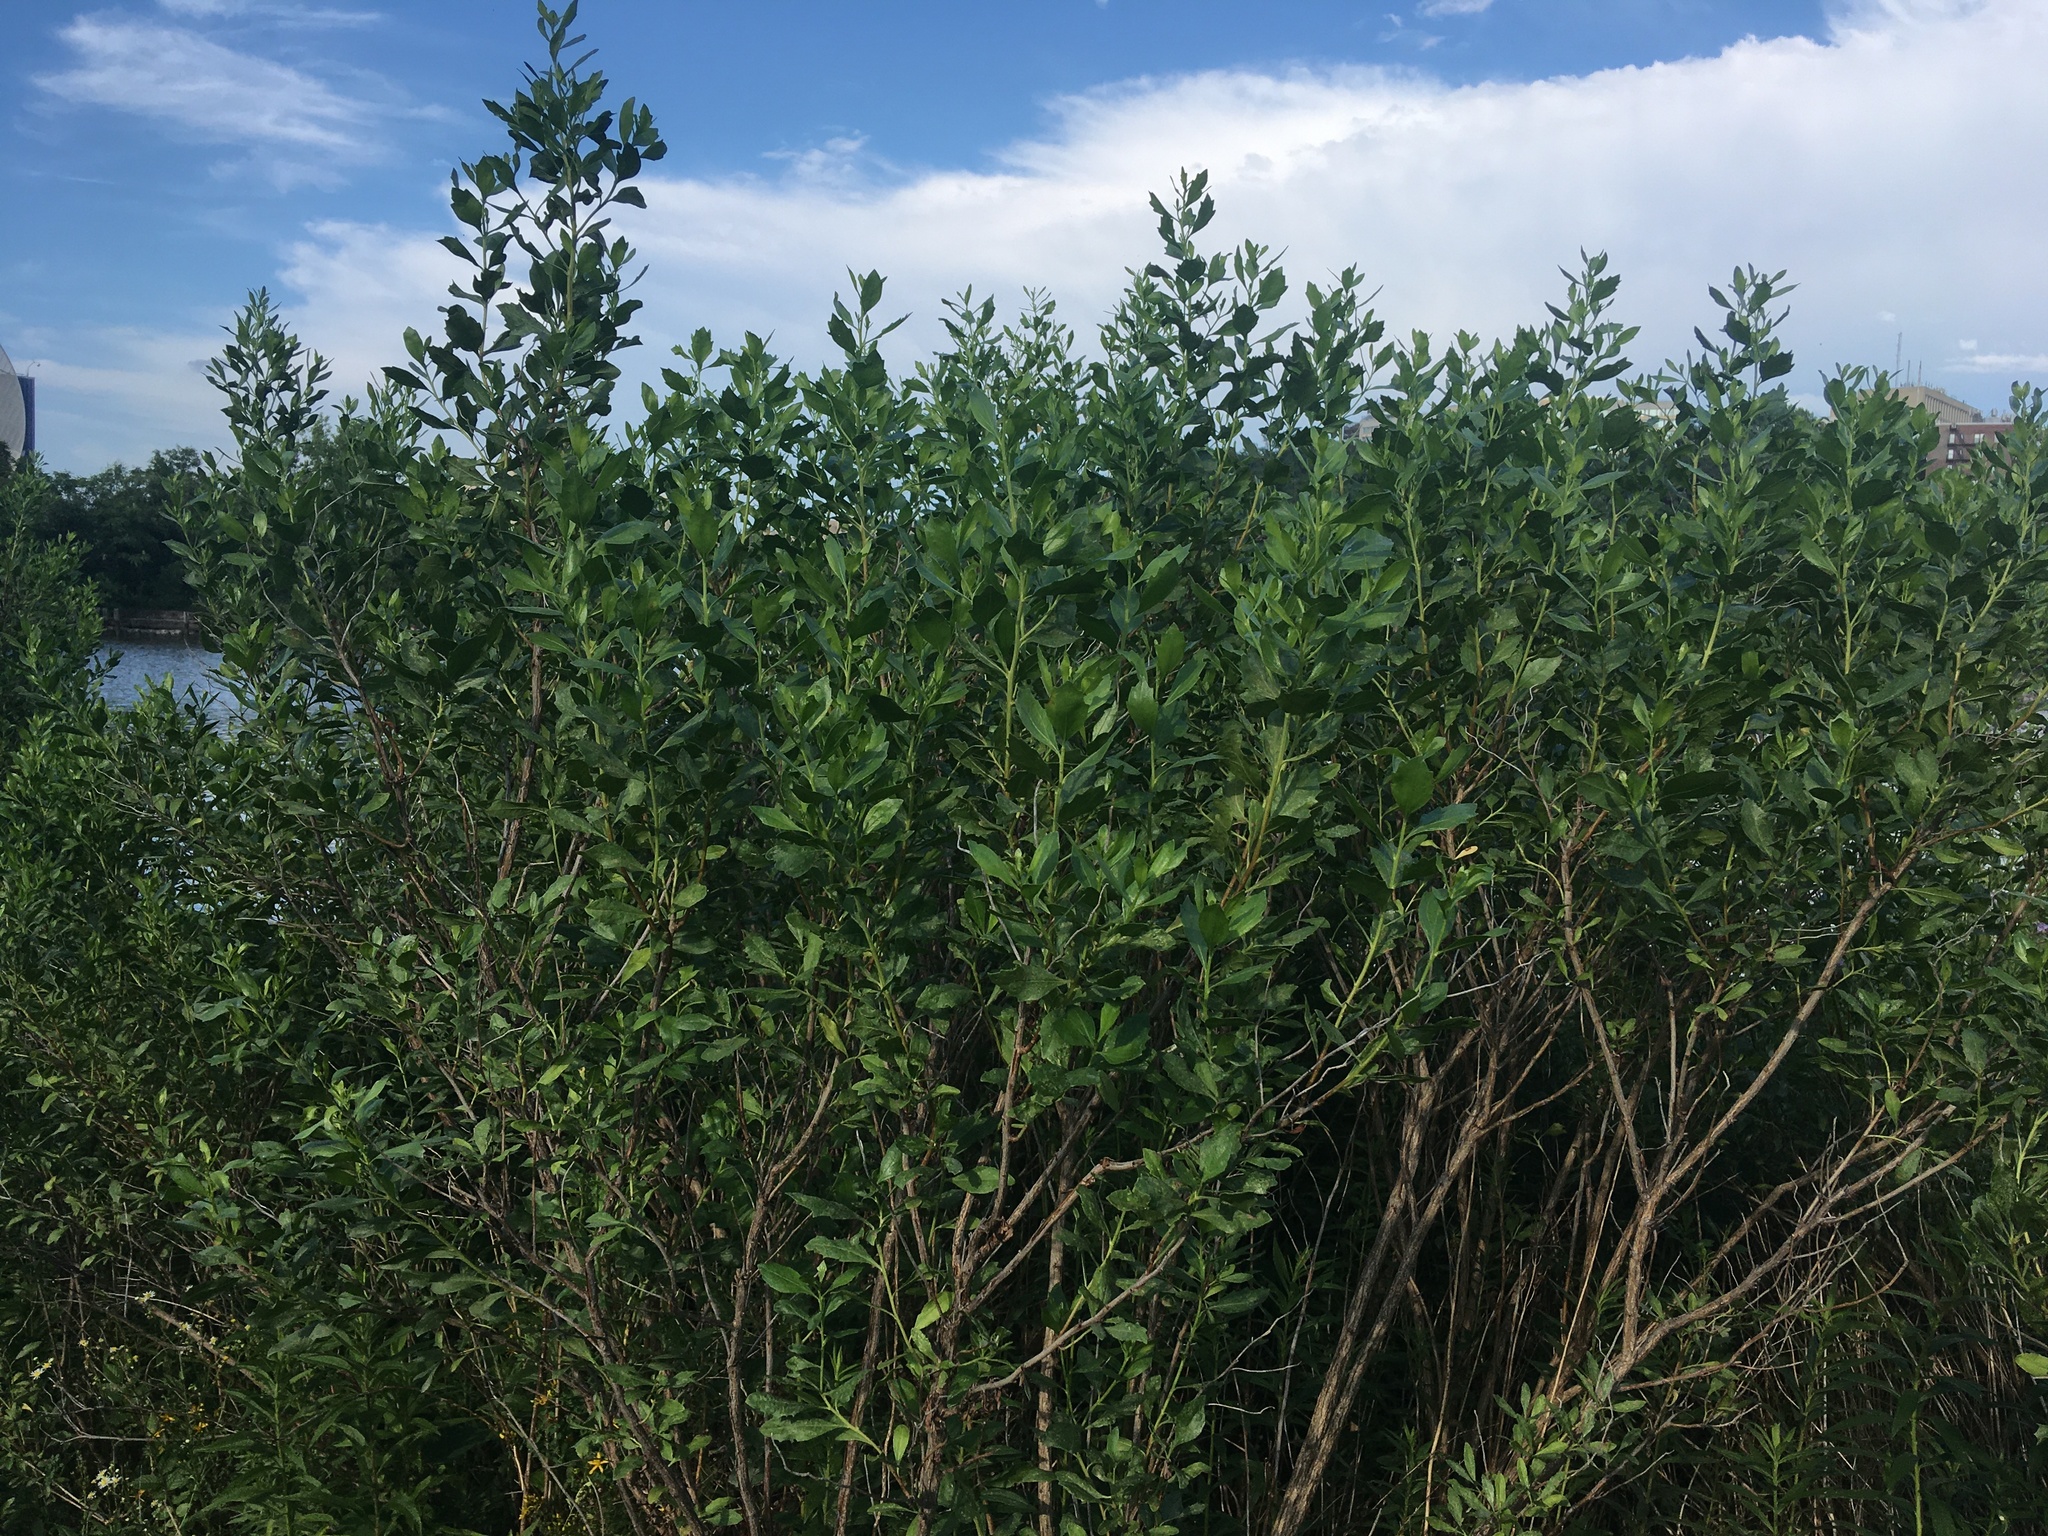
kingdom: Plantae
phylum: Tracheophyta
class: Magnoliopsida
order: Asterales
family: Asteraceae
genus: Baccharis
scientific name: Baccharis halimifolia
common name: Eastern baccharis
